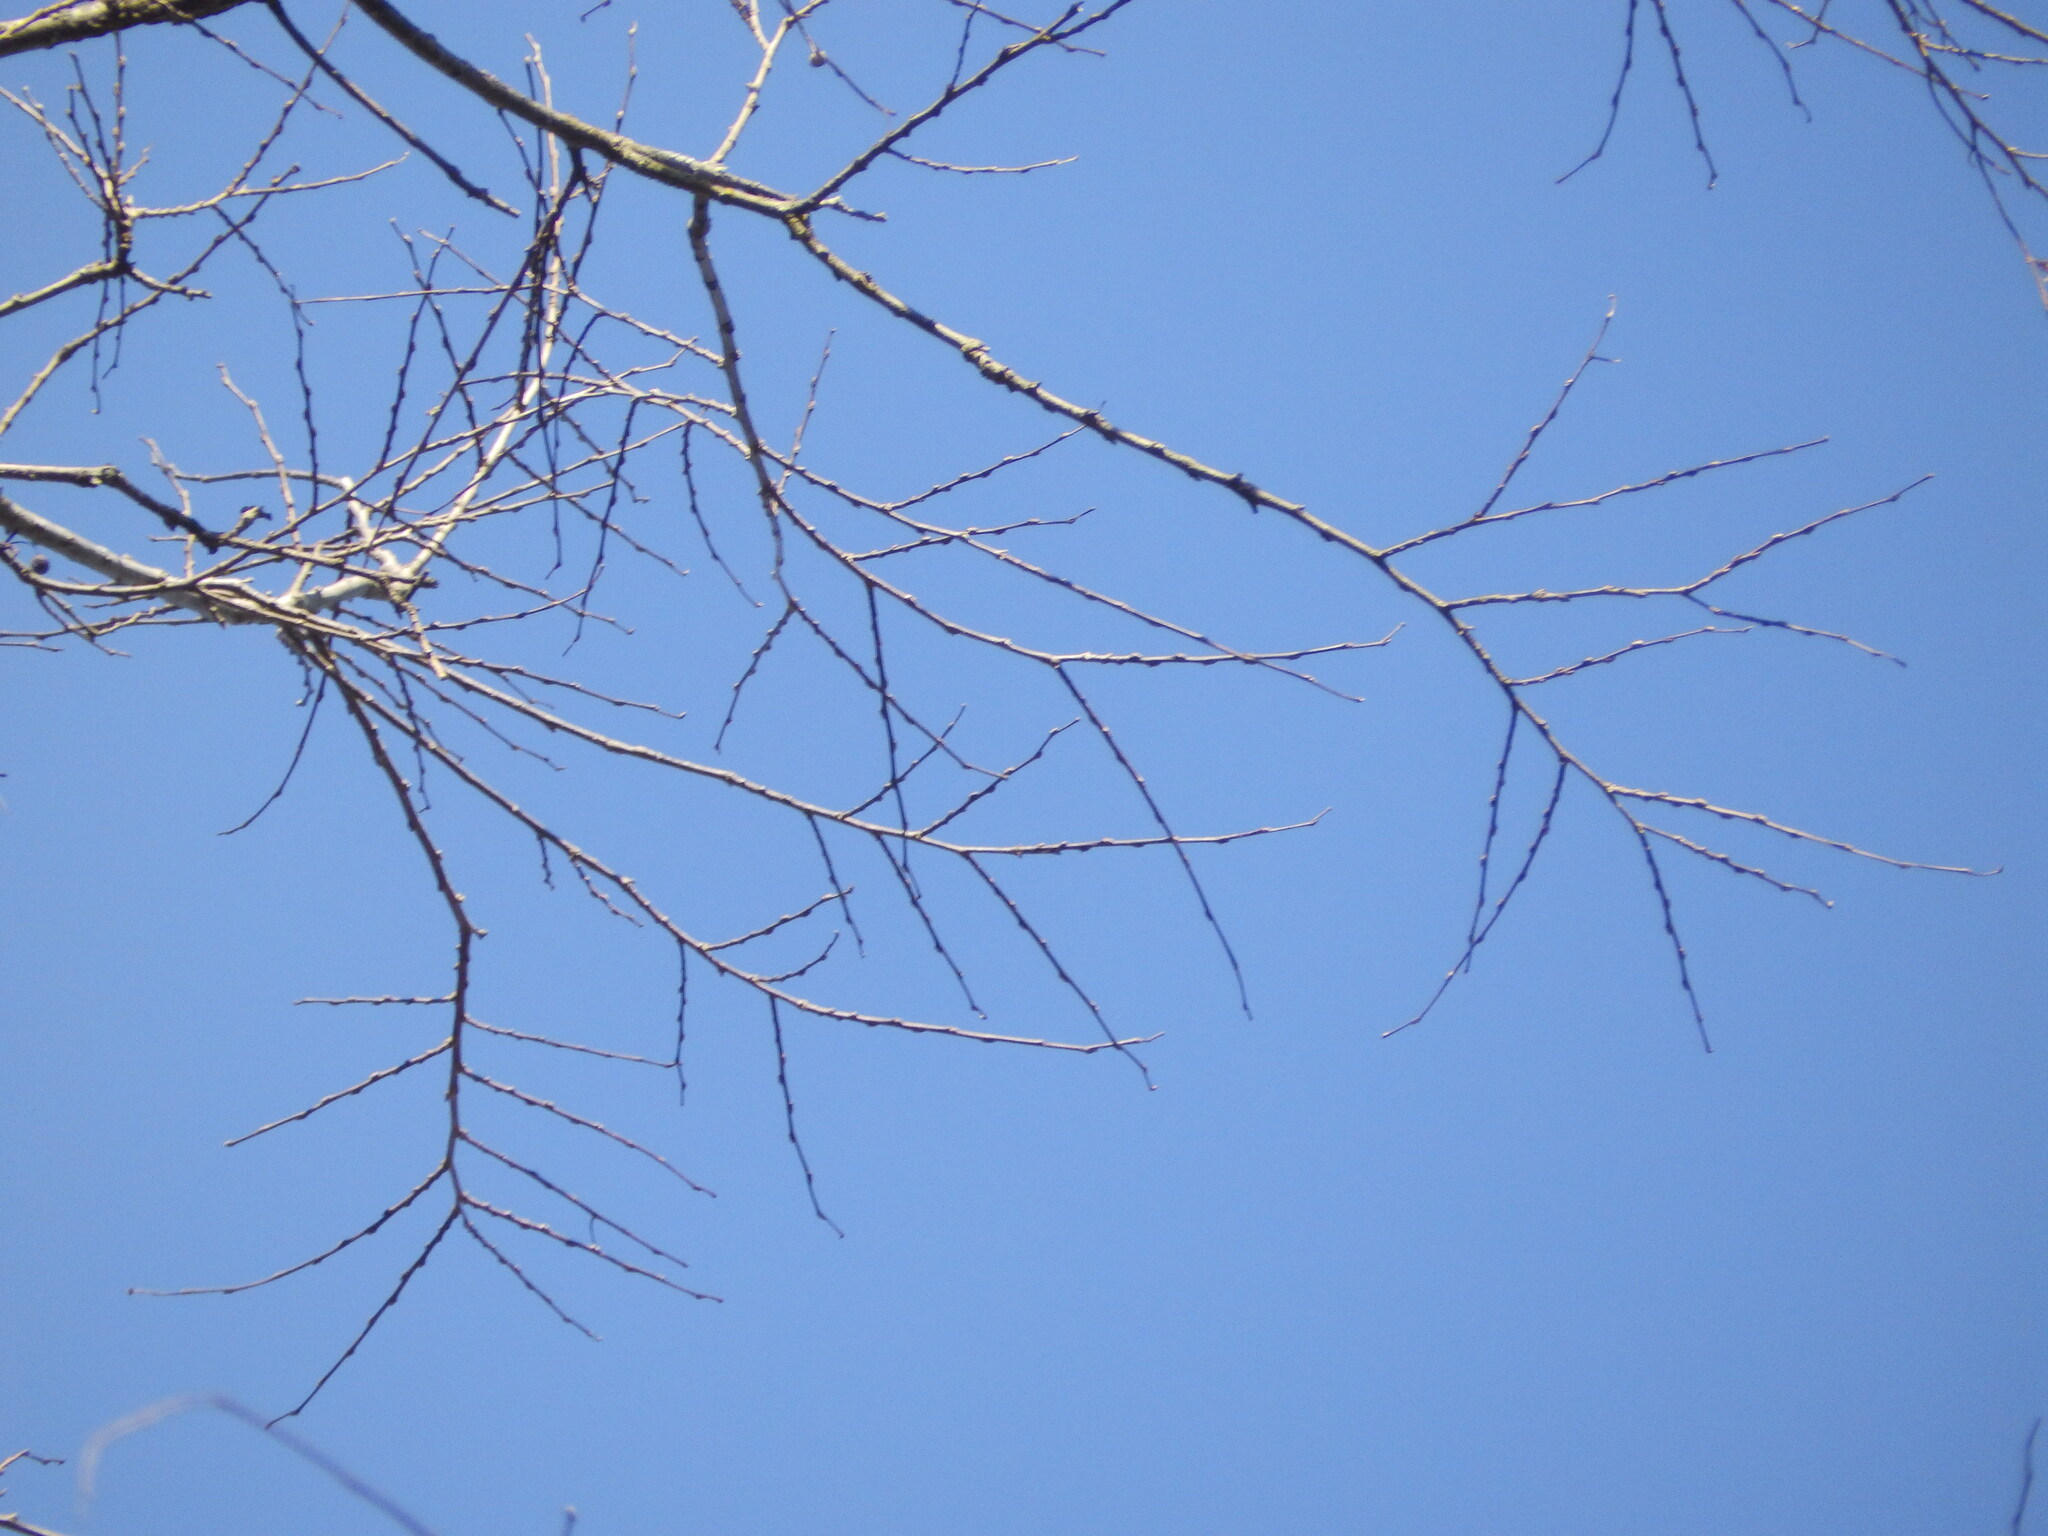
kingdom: Plantae
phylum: Tracheophyta
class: Magnoliopsida
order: Rosales
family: Cannabaceae
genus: Celtis
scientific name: Celtis occidentalis
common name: Common hackberry
